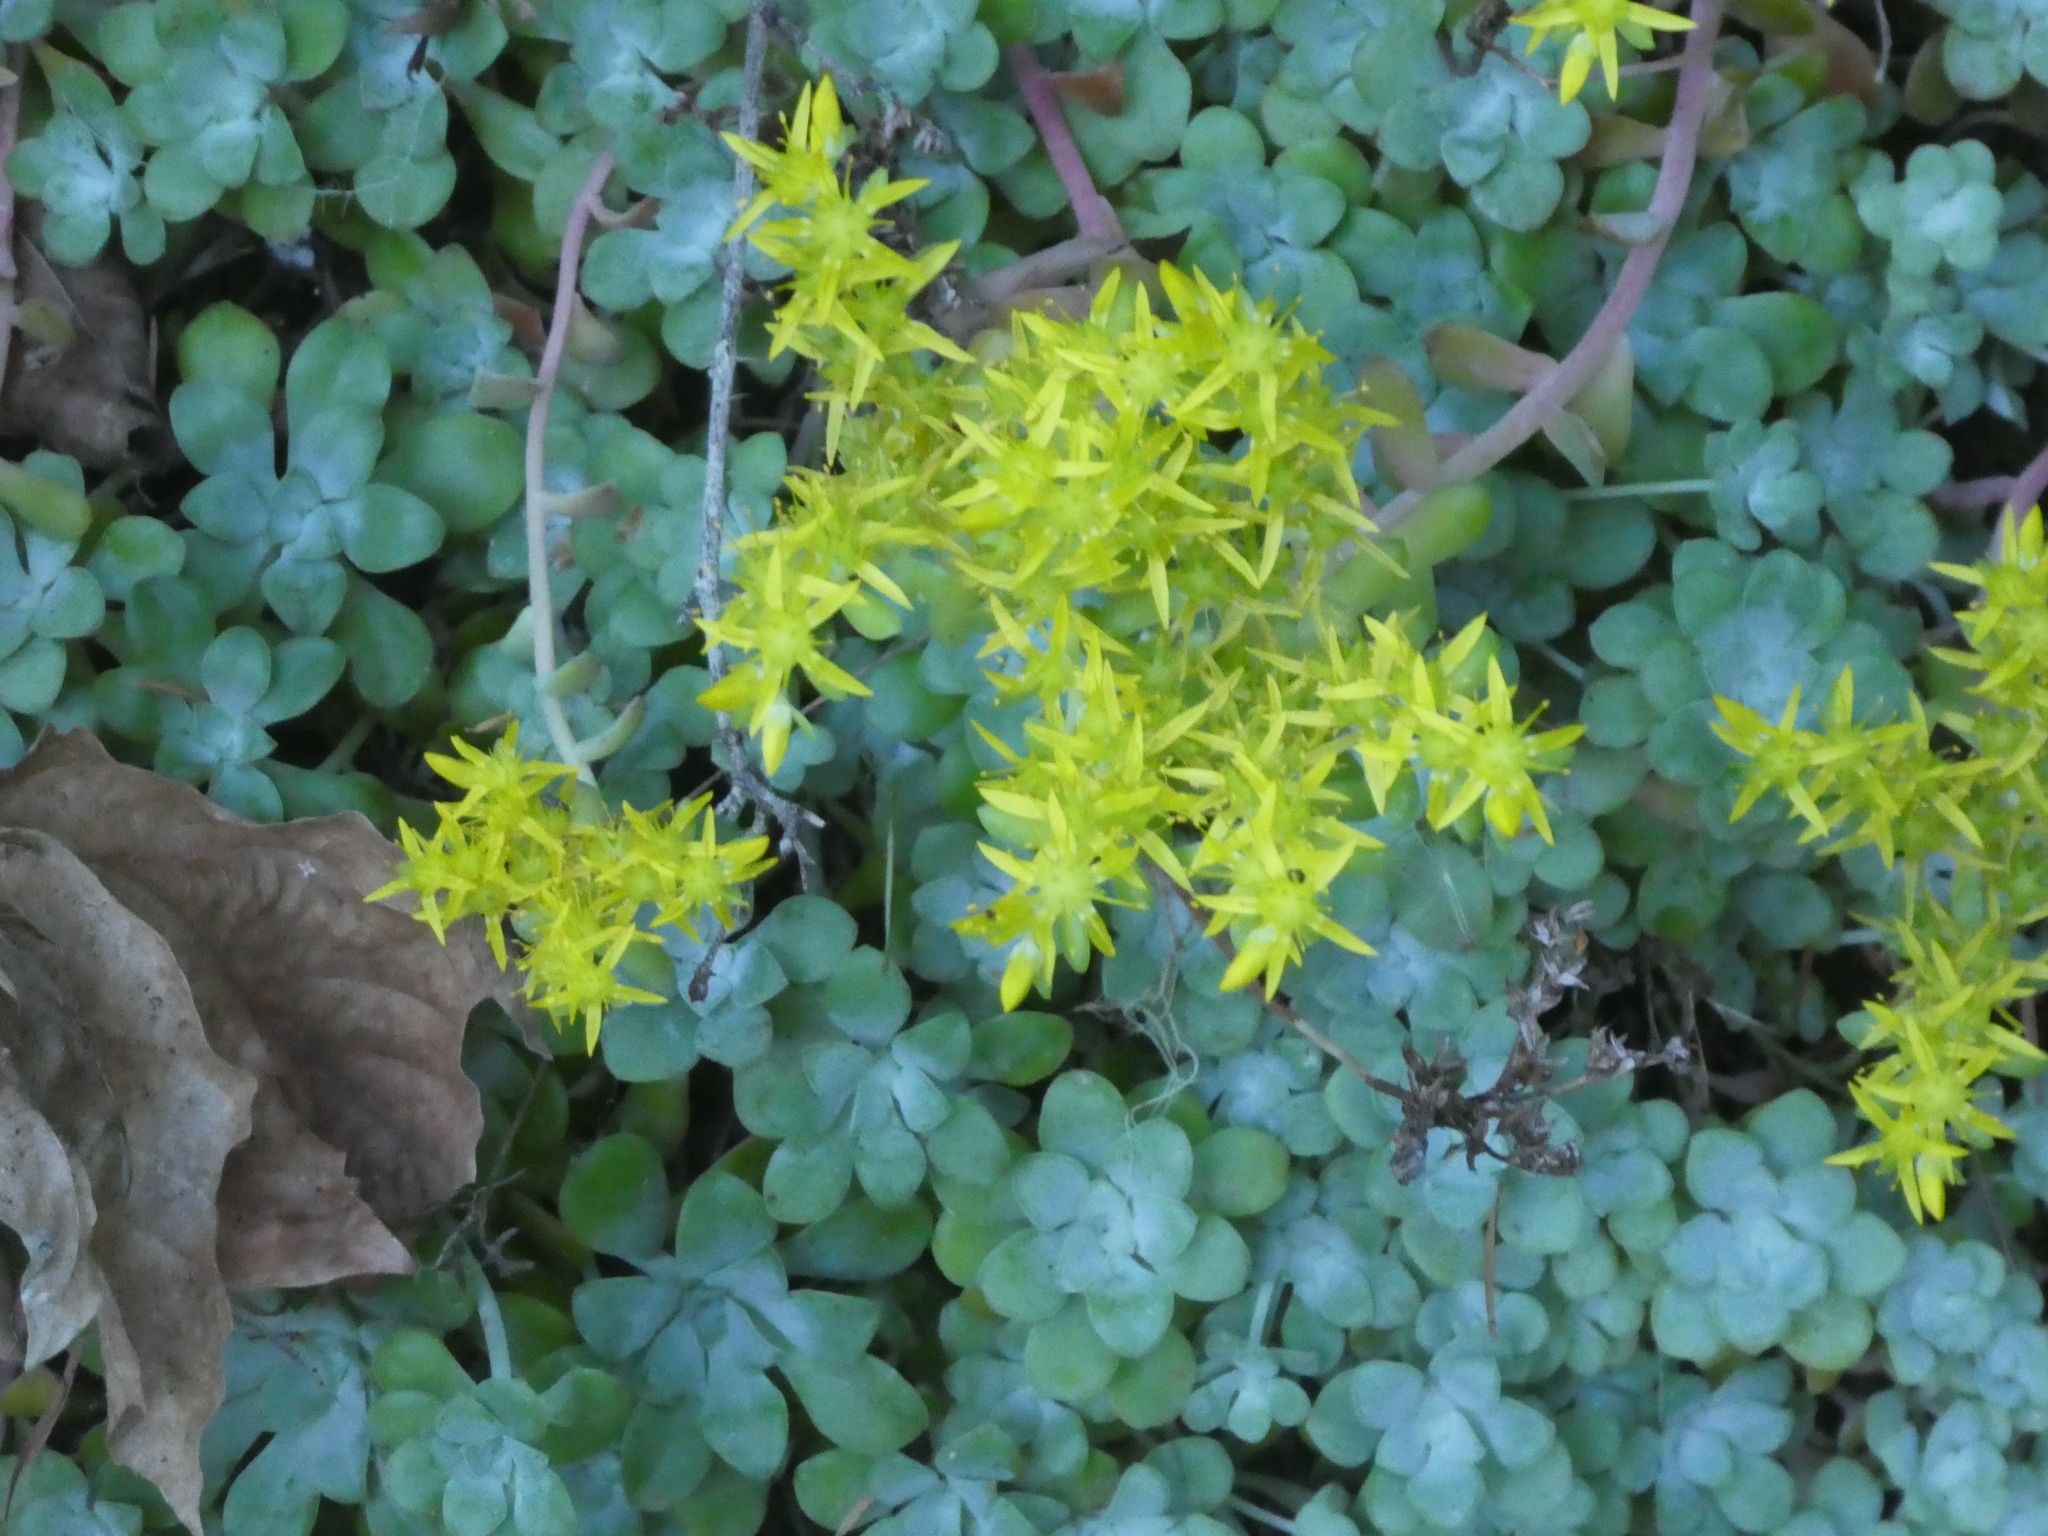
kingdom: Plantae
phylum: Tracheophyta
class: Magnoliopsida
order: Saxifragales
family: Crassulaceae
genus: Sedum
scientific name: Sedum spathulifolium
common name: Colorado stonecrop
